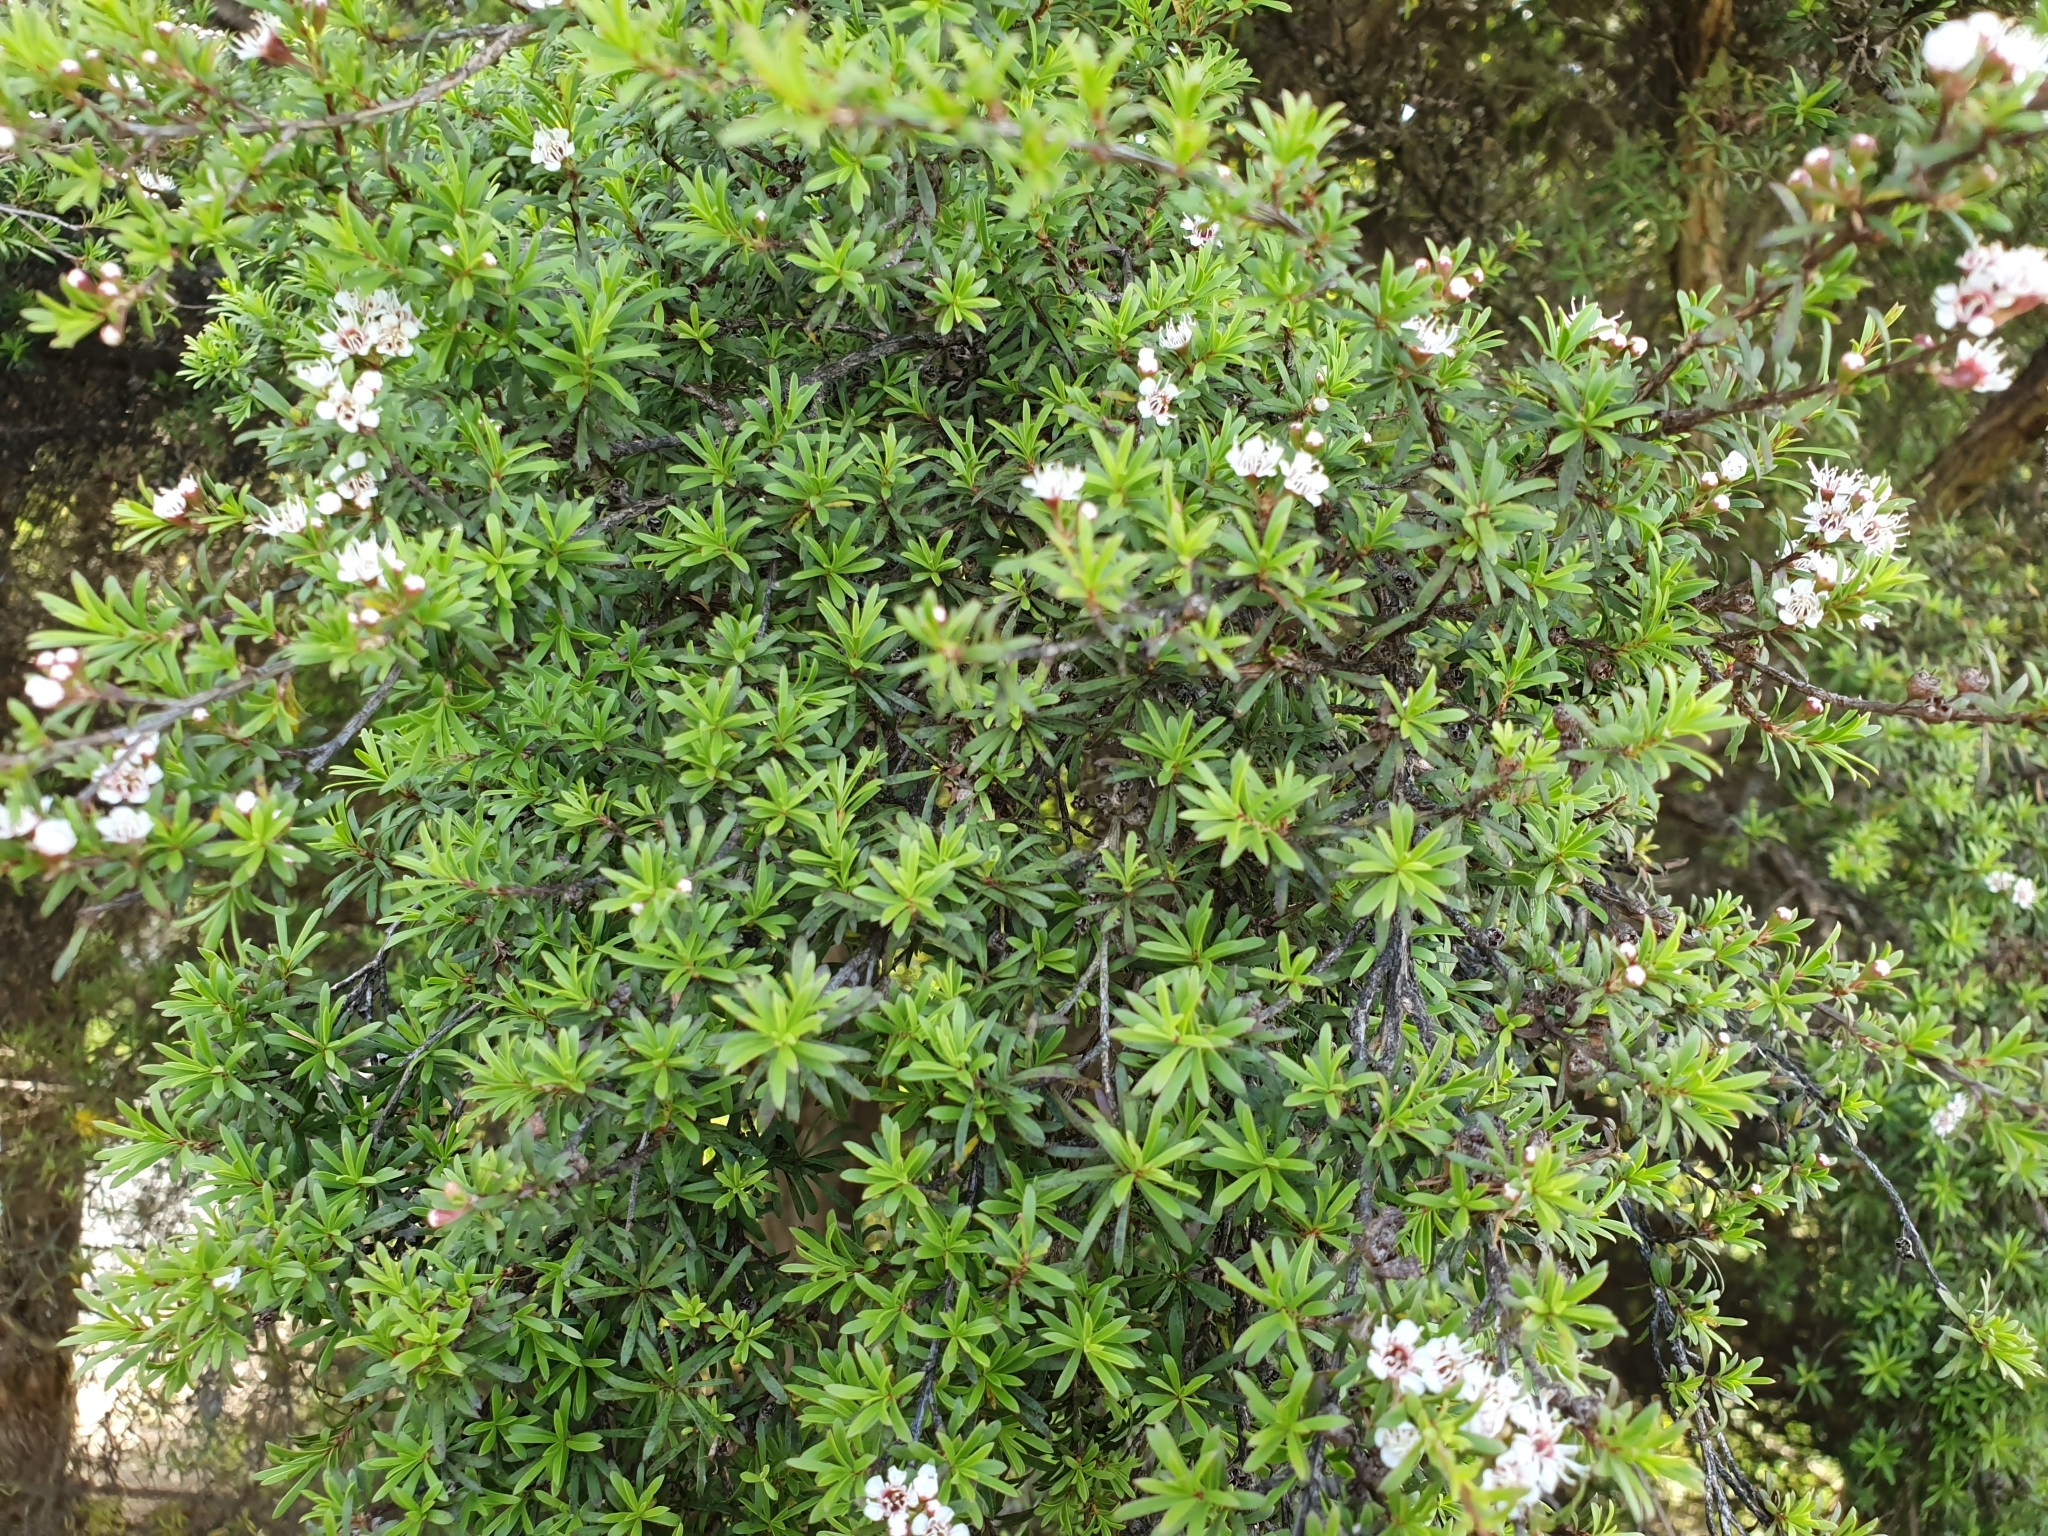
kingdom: Plantae
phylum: Tracheophyta
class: Magnoliopsida
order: Myrtales
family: Myrtaceae
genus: Kunzea
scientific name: Kunzea robusta
